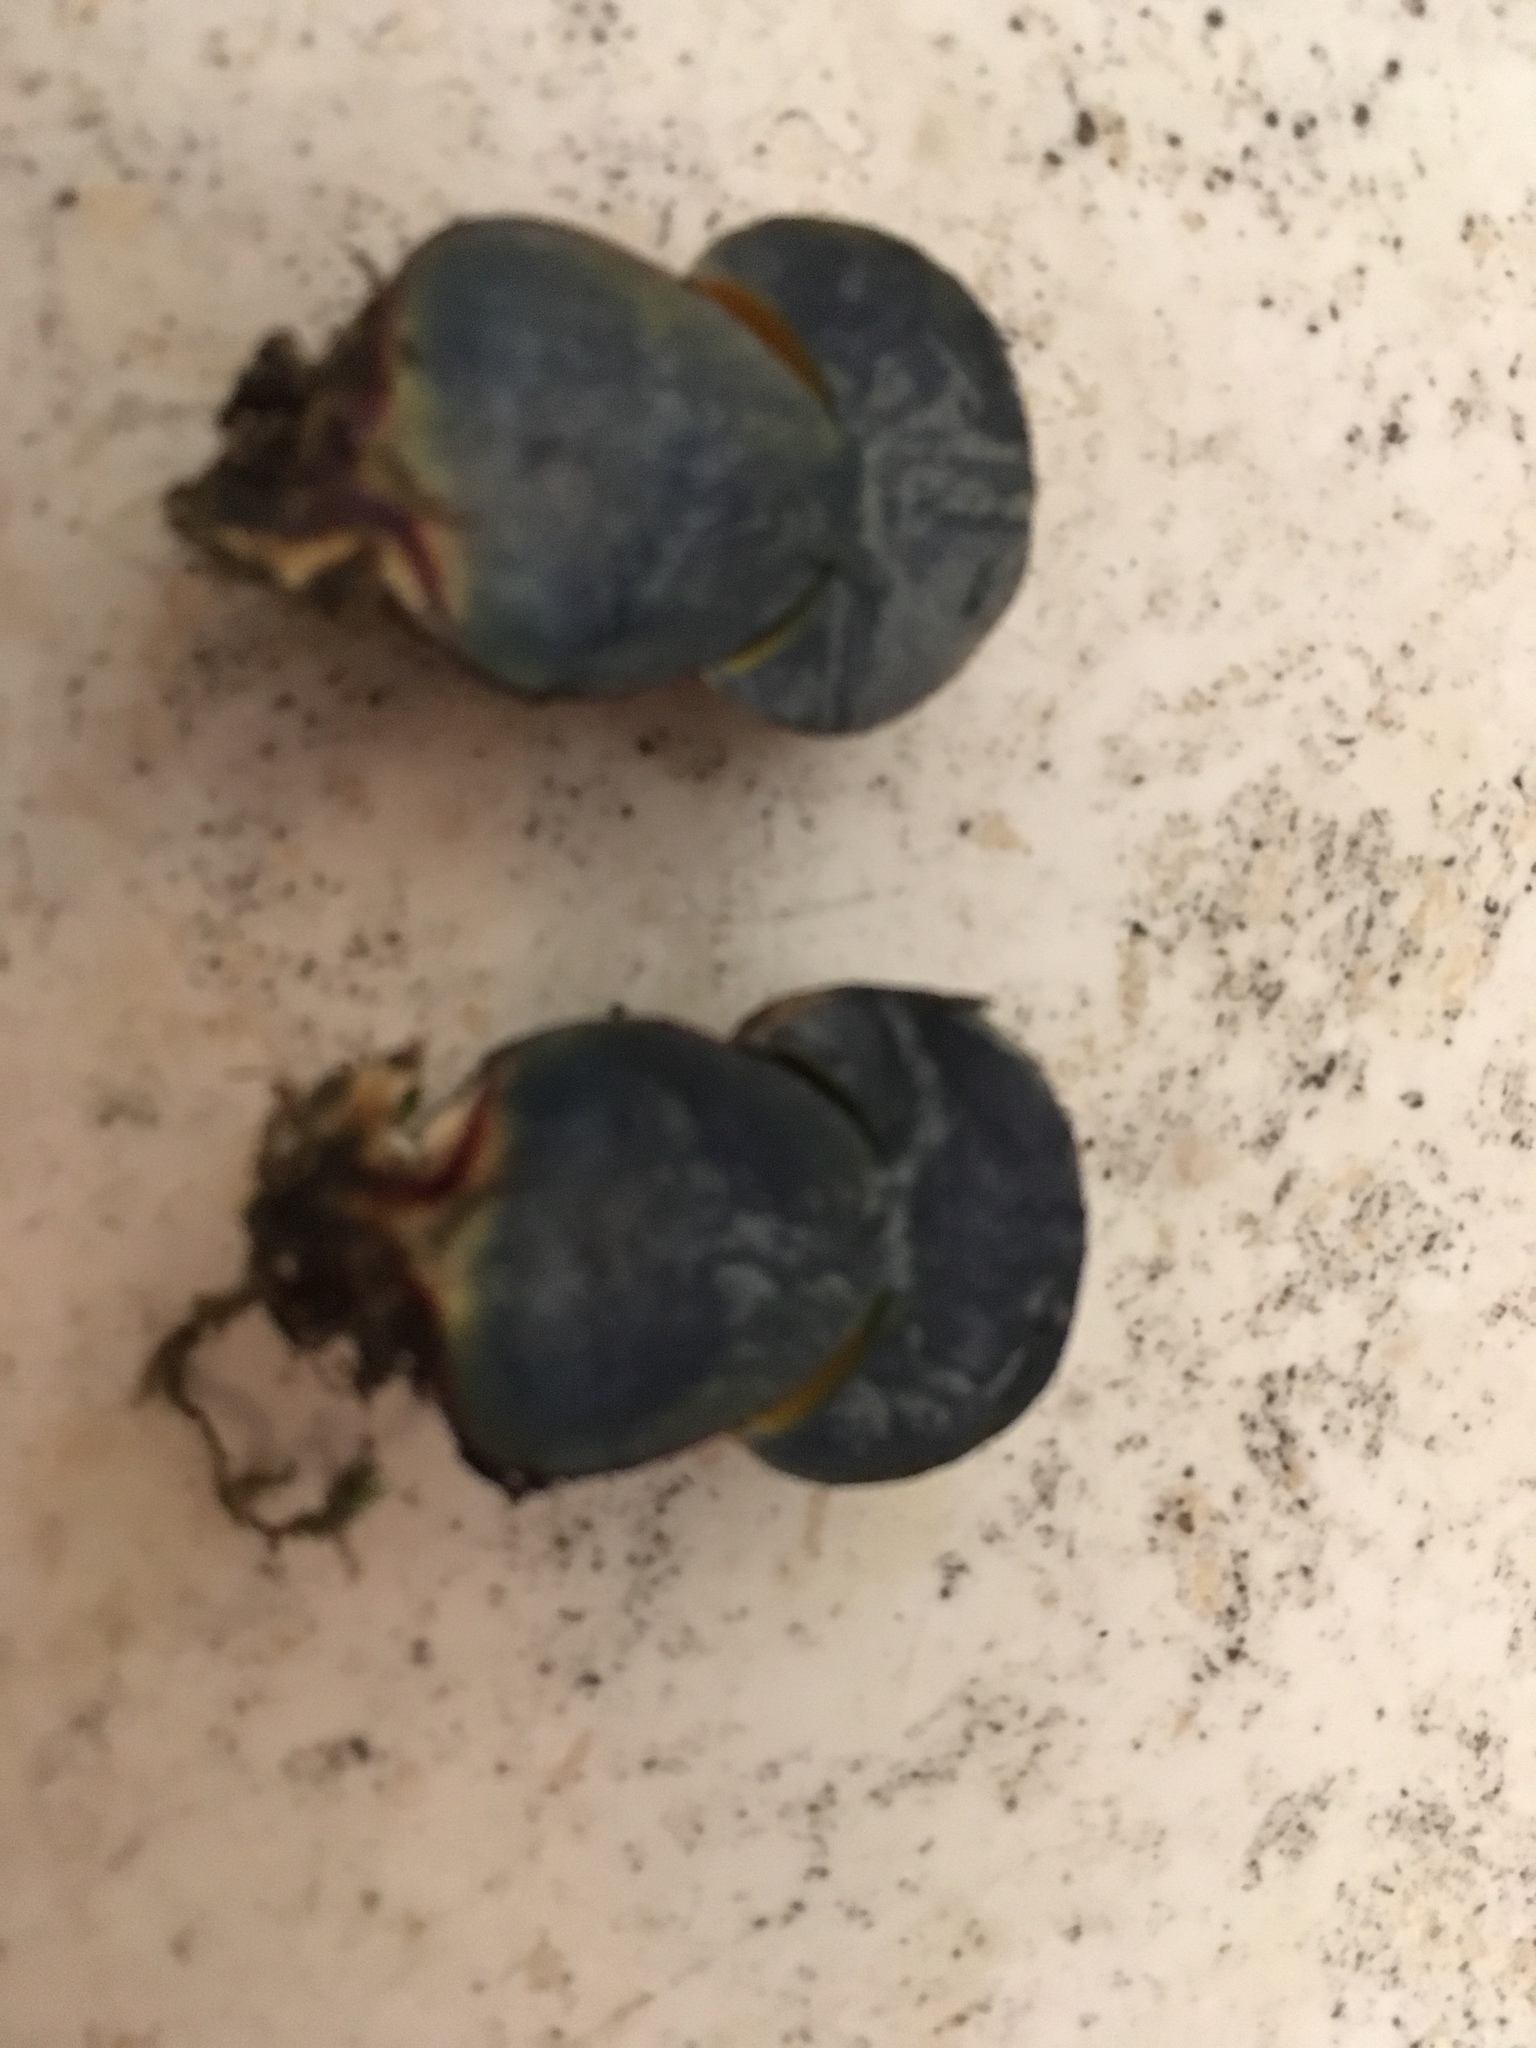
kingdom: Fungi
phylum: Basidiomycota
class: Agaricomycetes
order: Boletales
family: Boletaceae
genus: Boletus
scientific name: Boletus subvelutipes
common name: Red-mouth bolete
